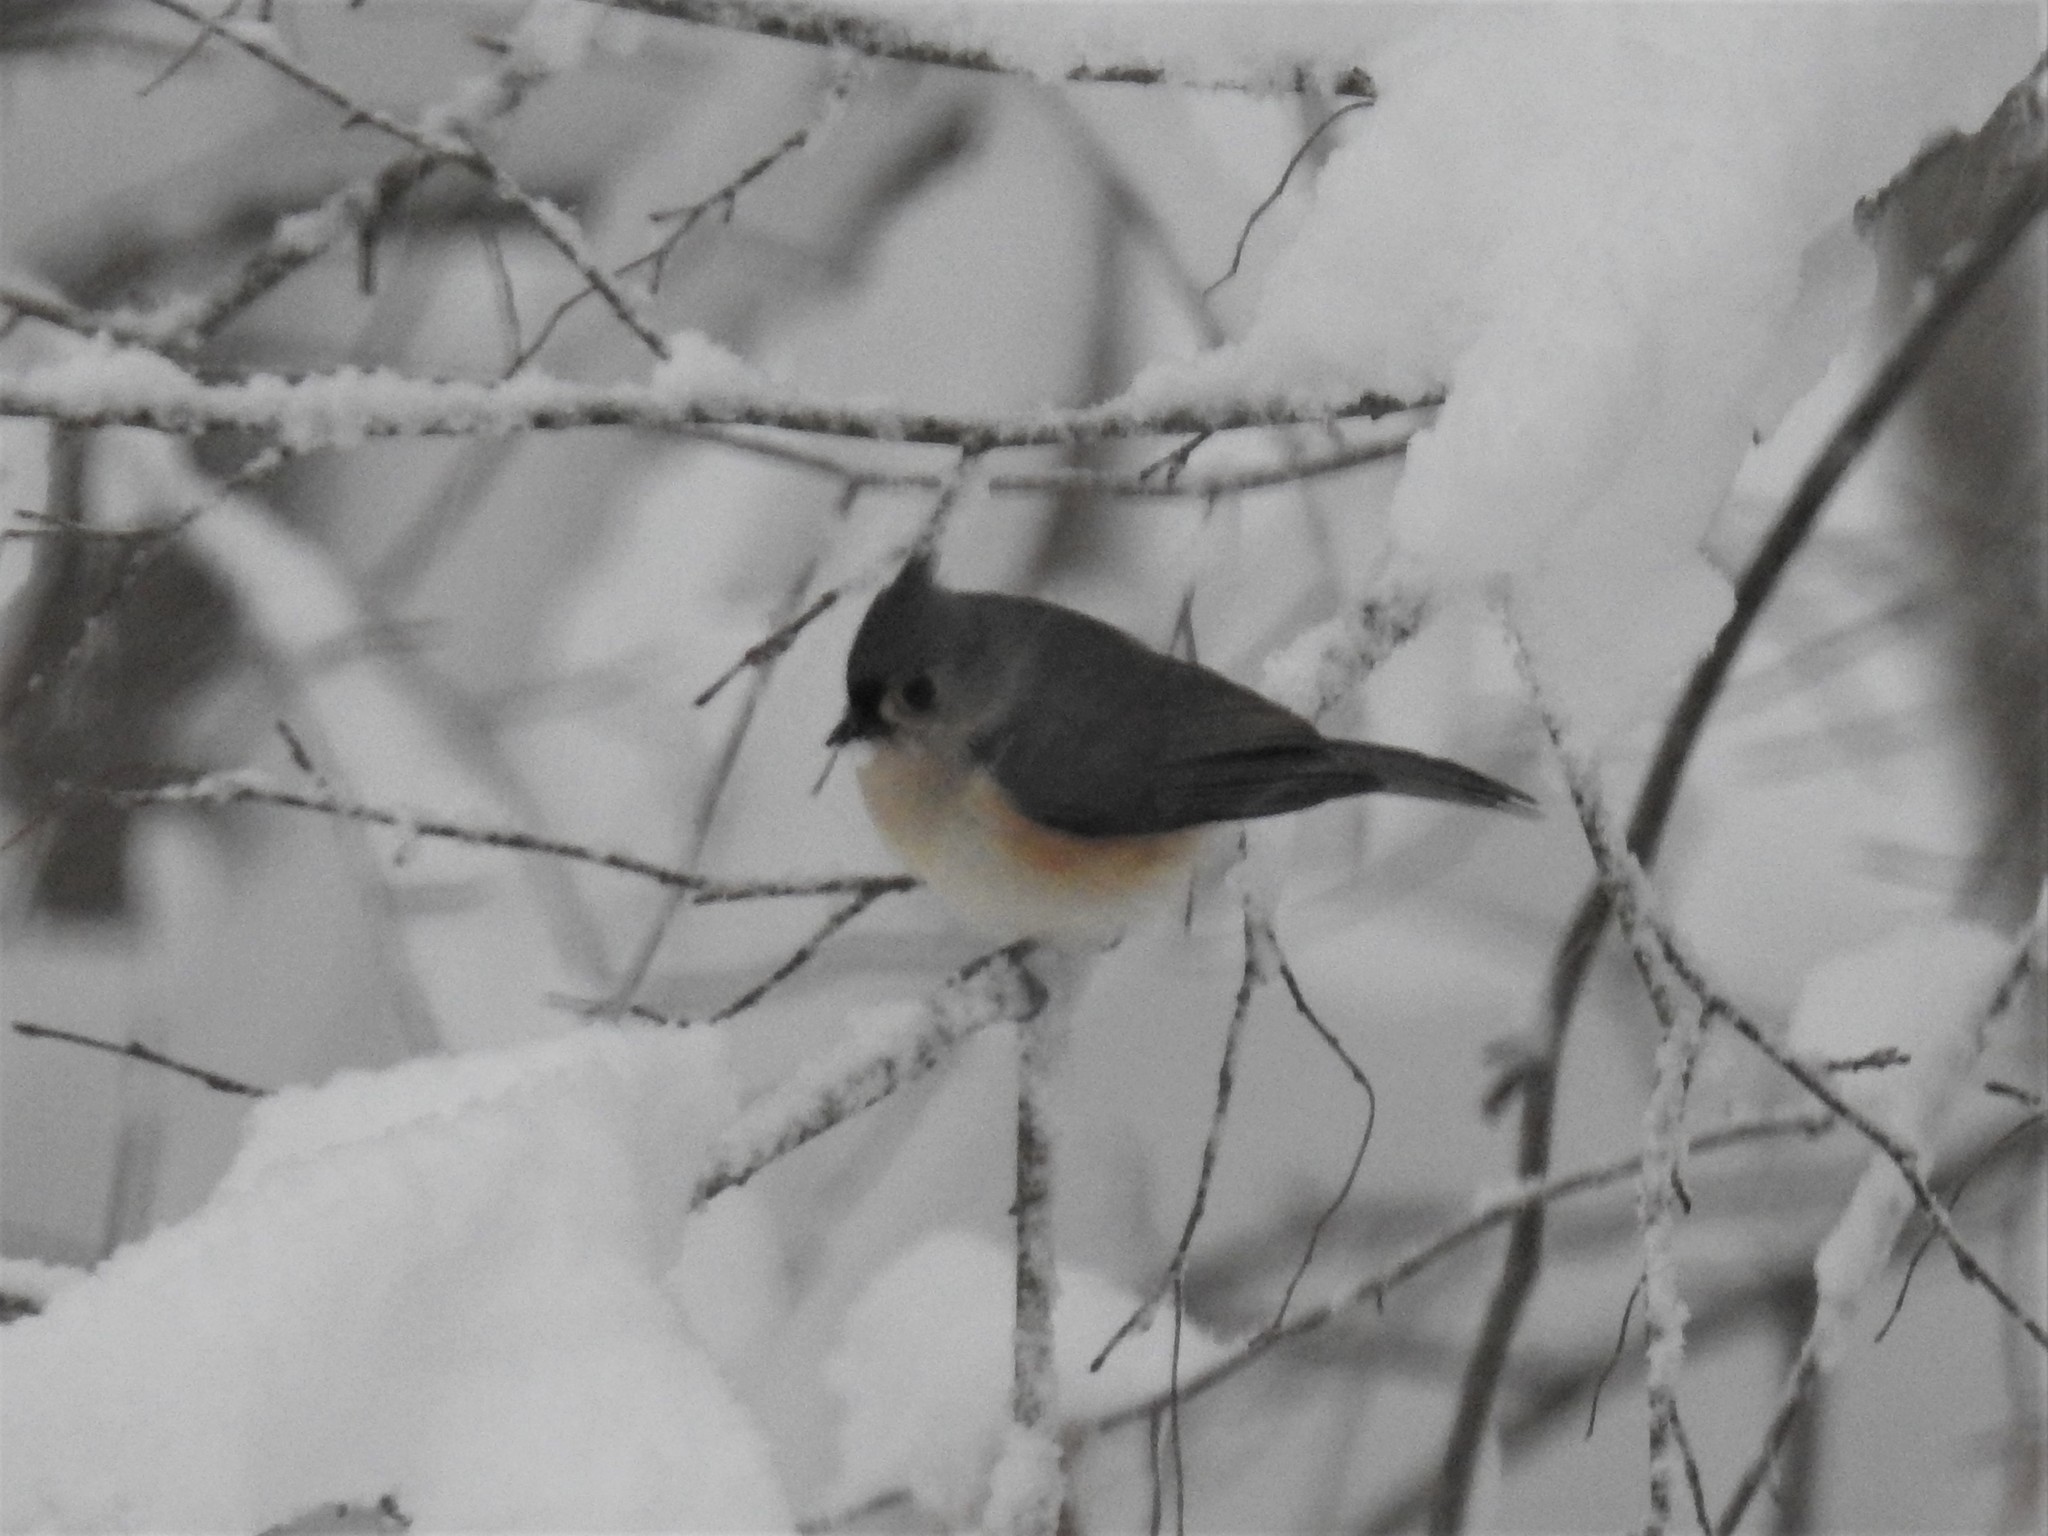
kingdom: Animalia
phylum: Chordata
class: Aves
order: Passeriformes
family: Paridae
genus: Baeolophus
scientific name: Baeolophus bicolor
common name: Tufted titmouse
